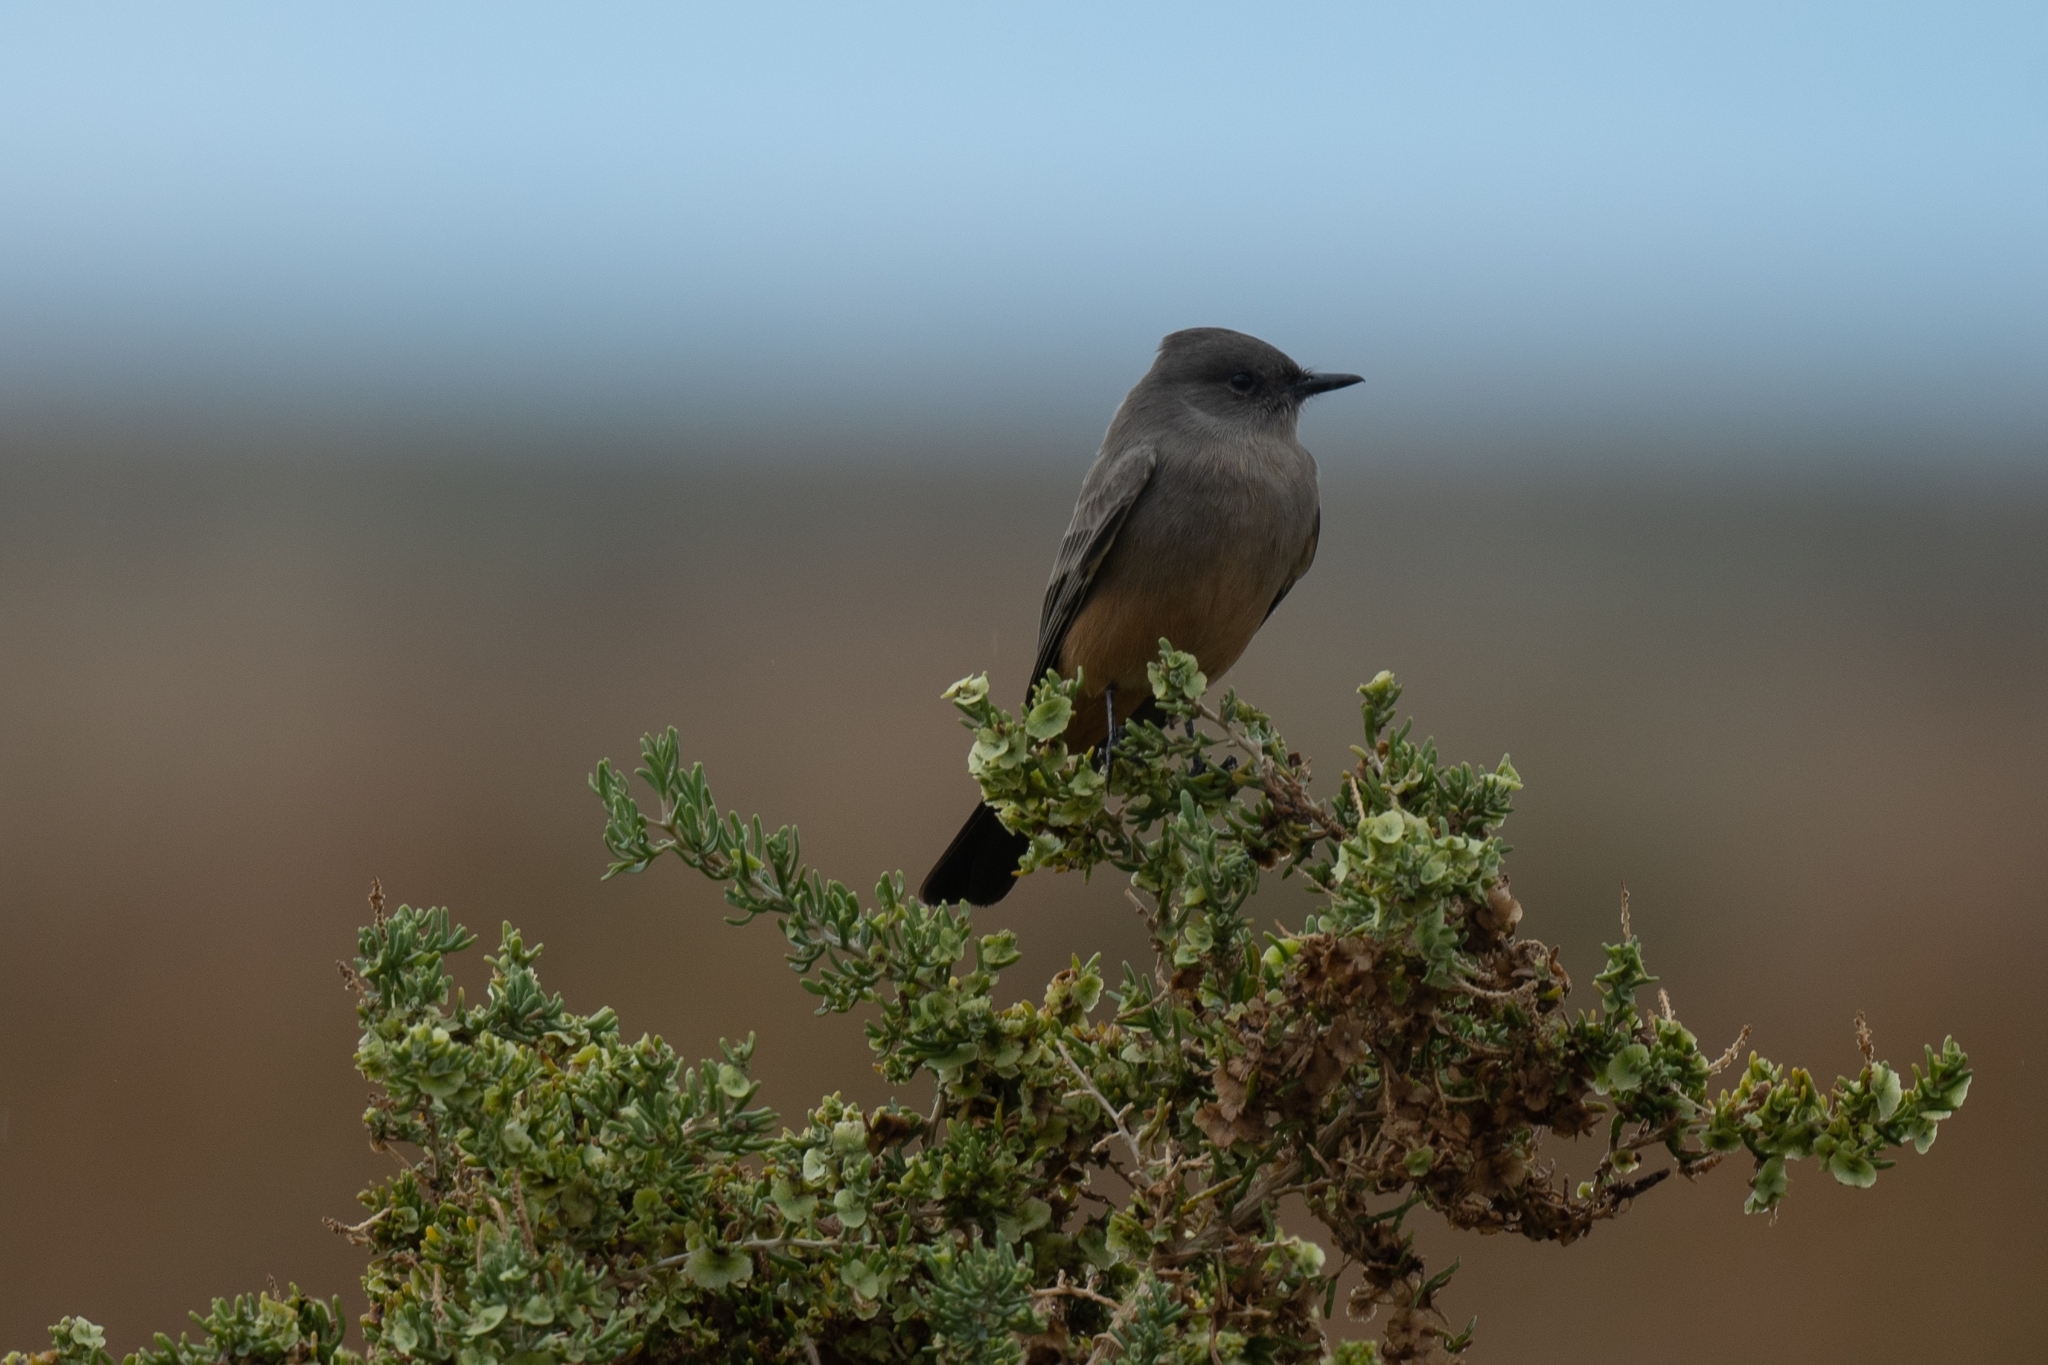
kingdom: Animalia
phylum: Chordata
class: Aves
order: Passeriformes
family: Tyrannidae
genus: Sayornis
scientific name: Sayornis saya
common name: Say's phoebe
